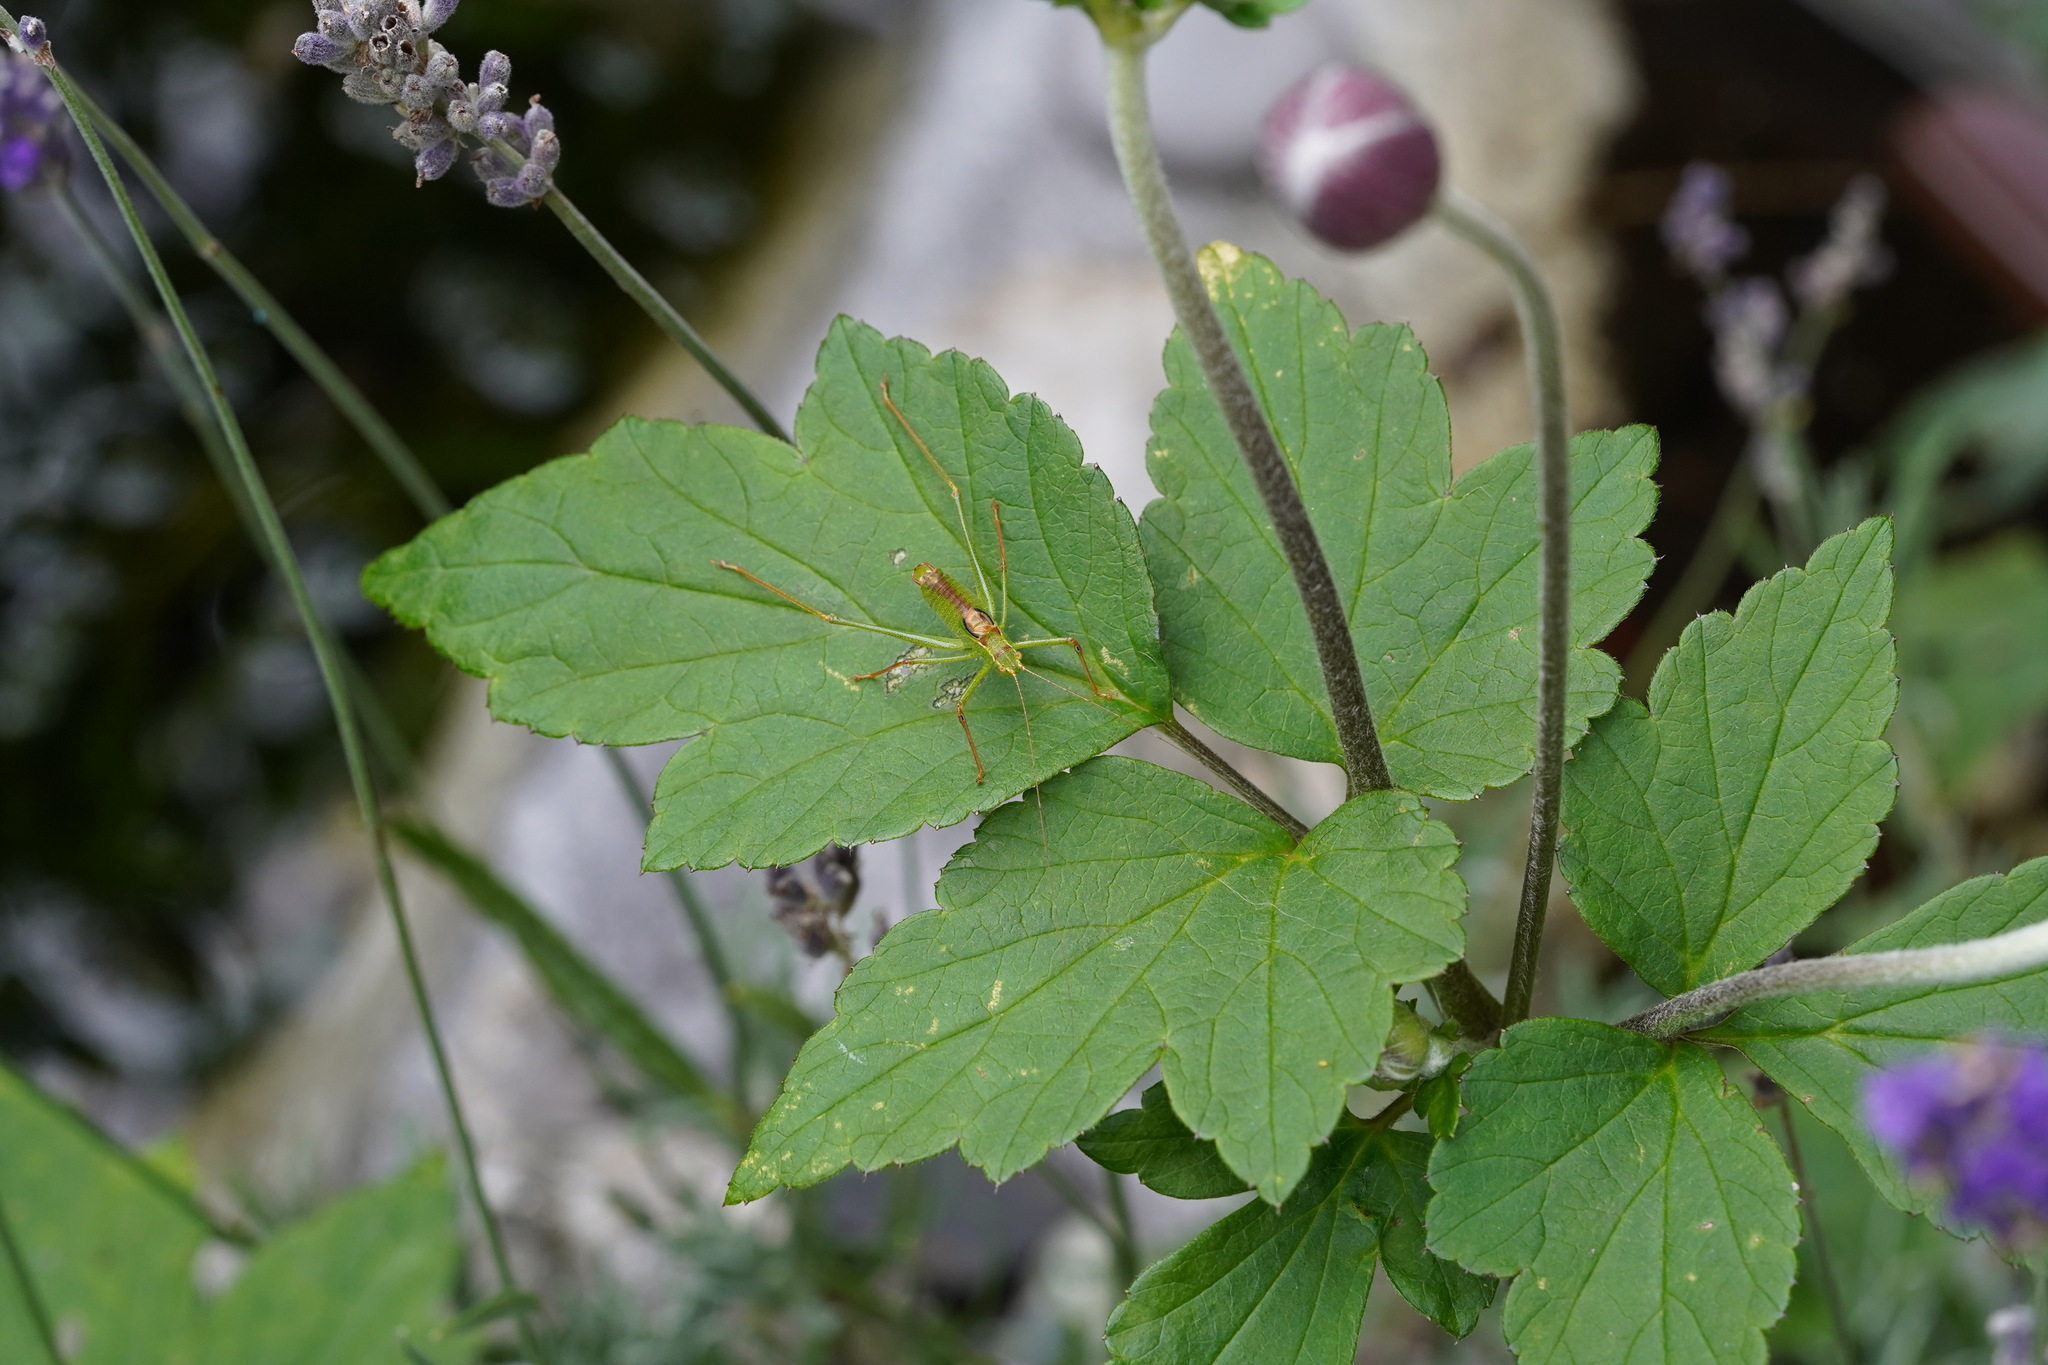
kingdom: Animalia
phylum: Arthropoda
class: Insecta
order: Orthoptera
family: Tettigoniidae
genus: Leptophyes
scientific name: Leptophyes punctatissima
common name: Speckled bush-cricket
